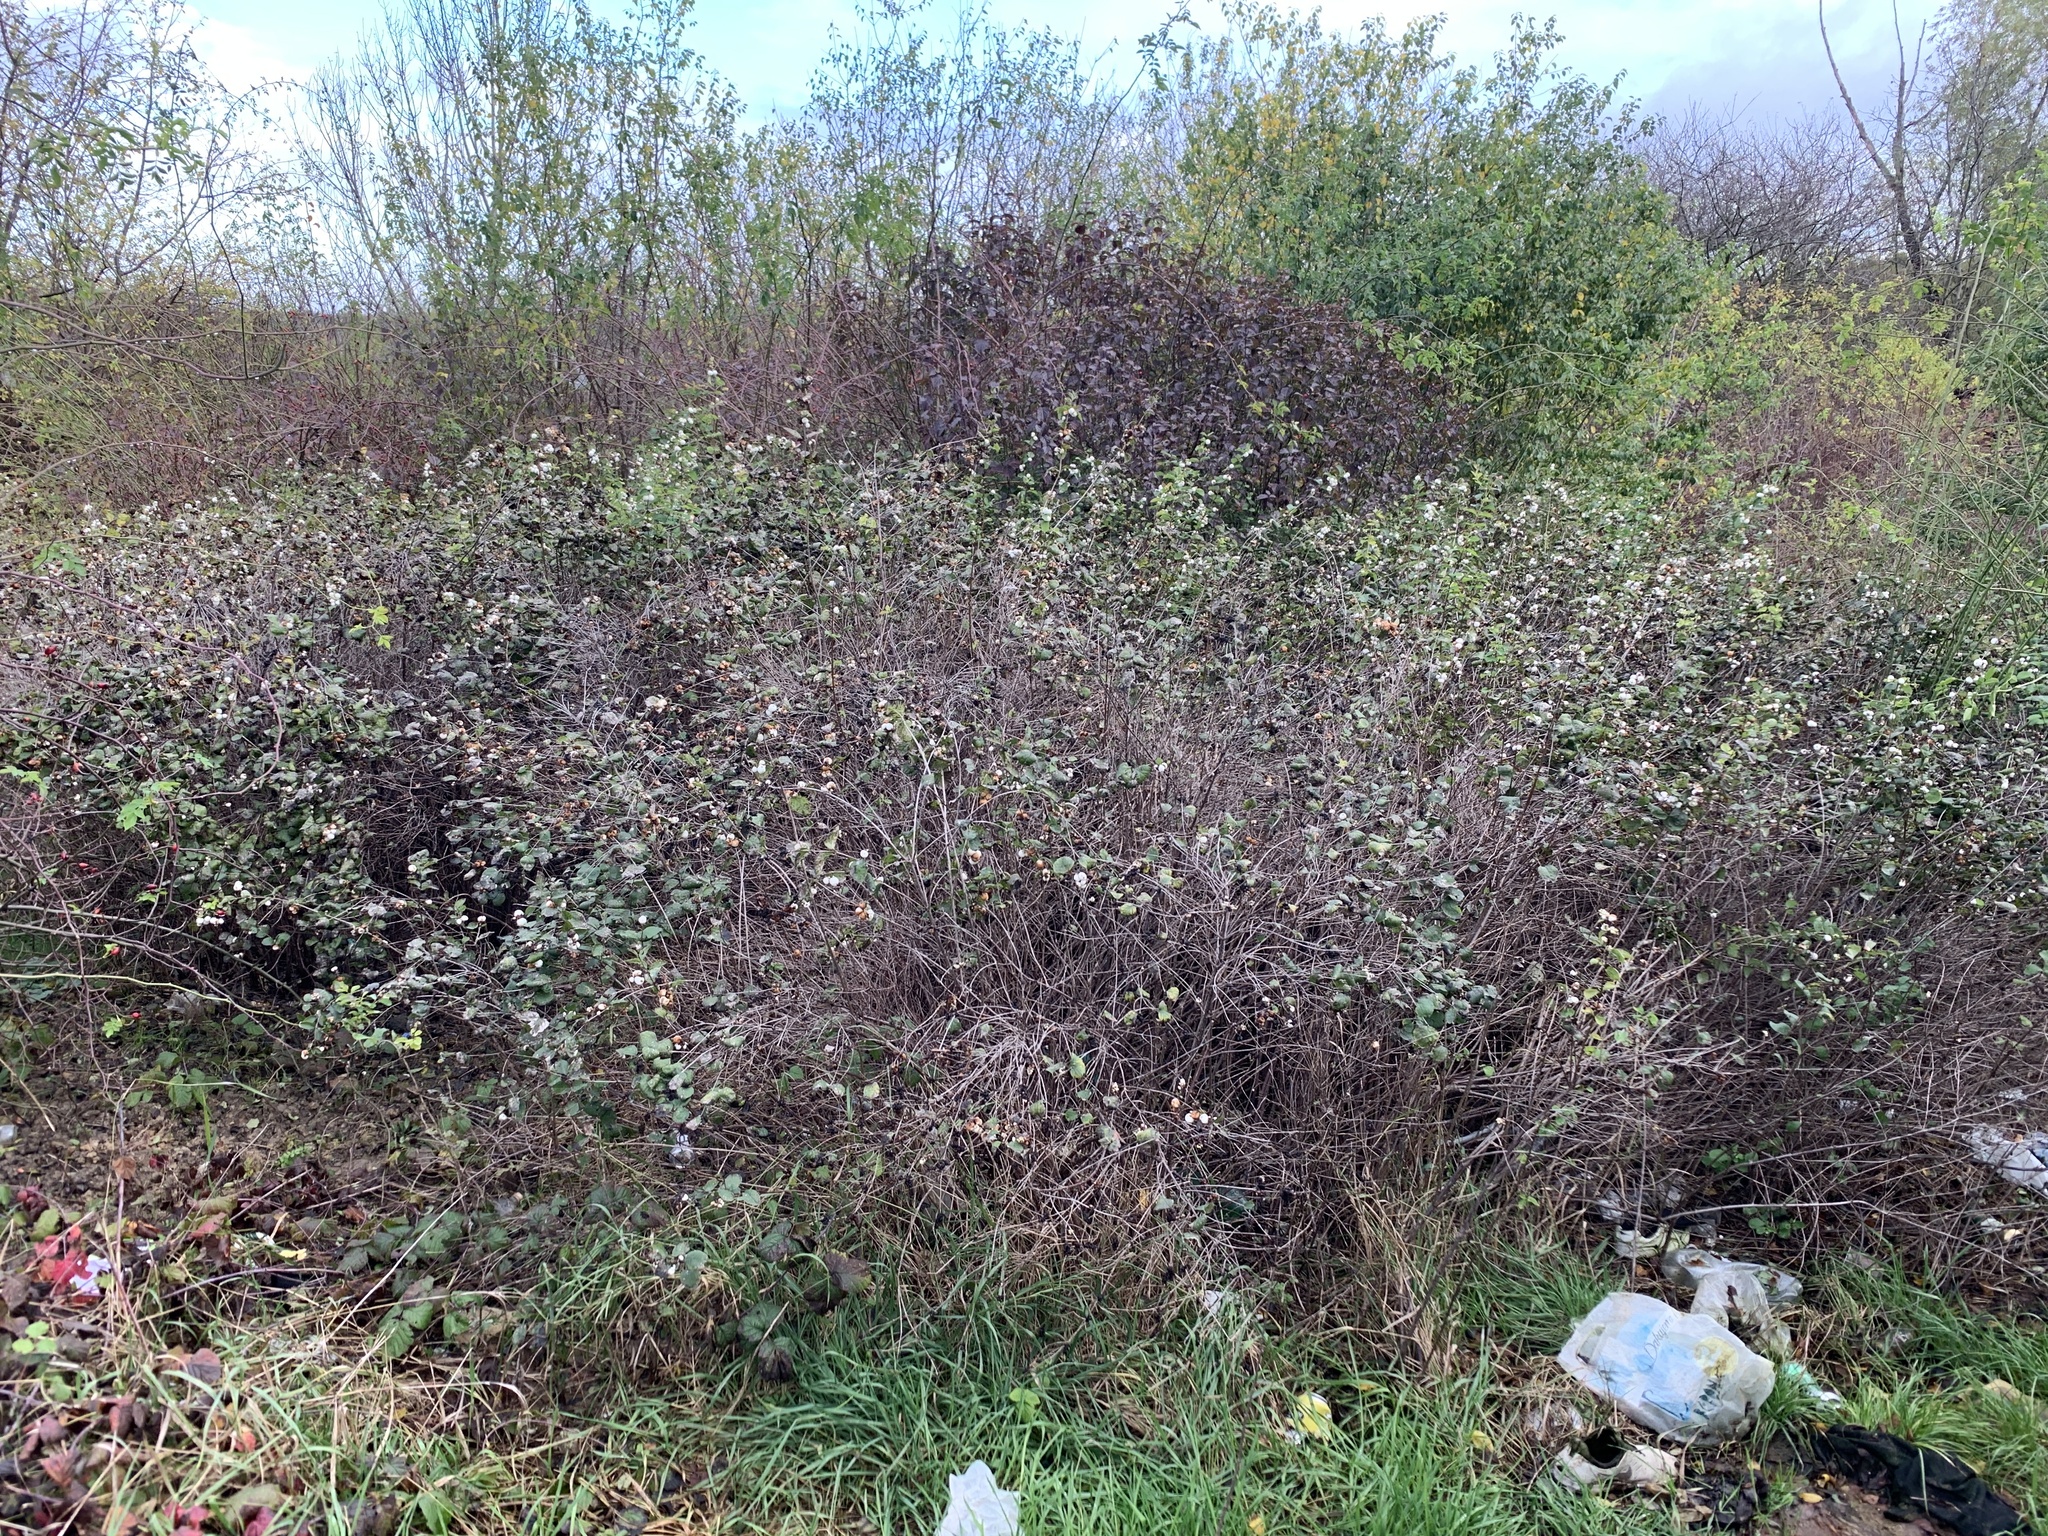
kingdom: Plantae
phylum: Tracheophyta
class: Magnoliopsida
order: Dipsacales
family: Caprifoliaceae
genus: Symphoricarpos
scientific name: Symphoricarpos albus
